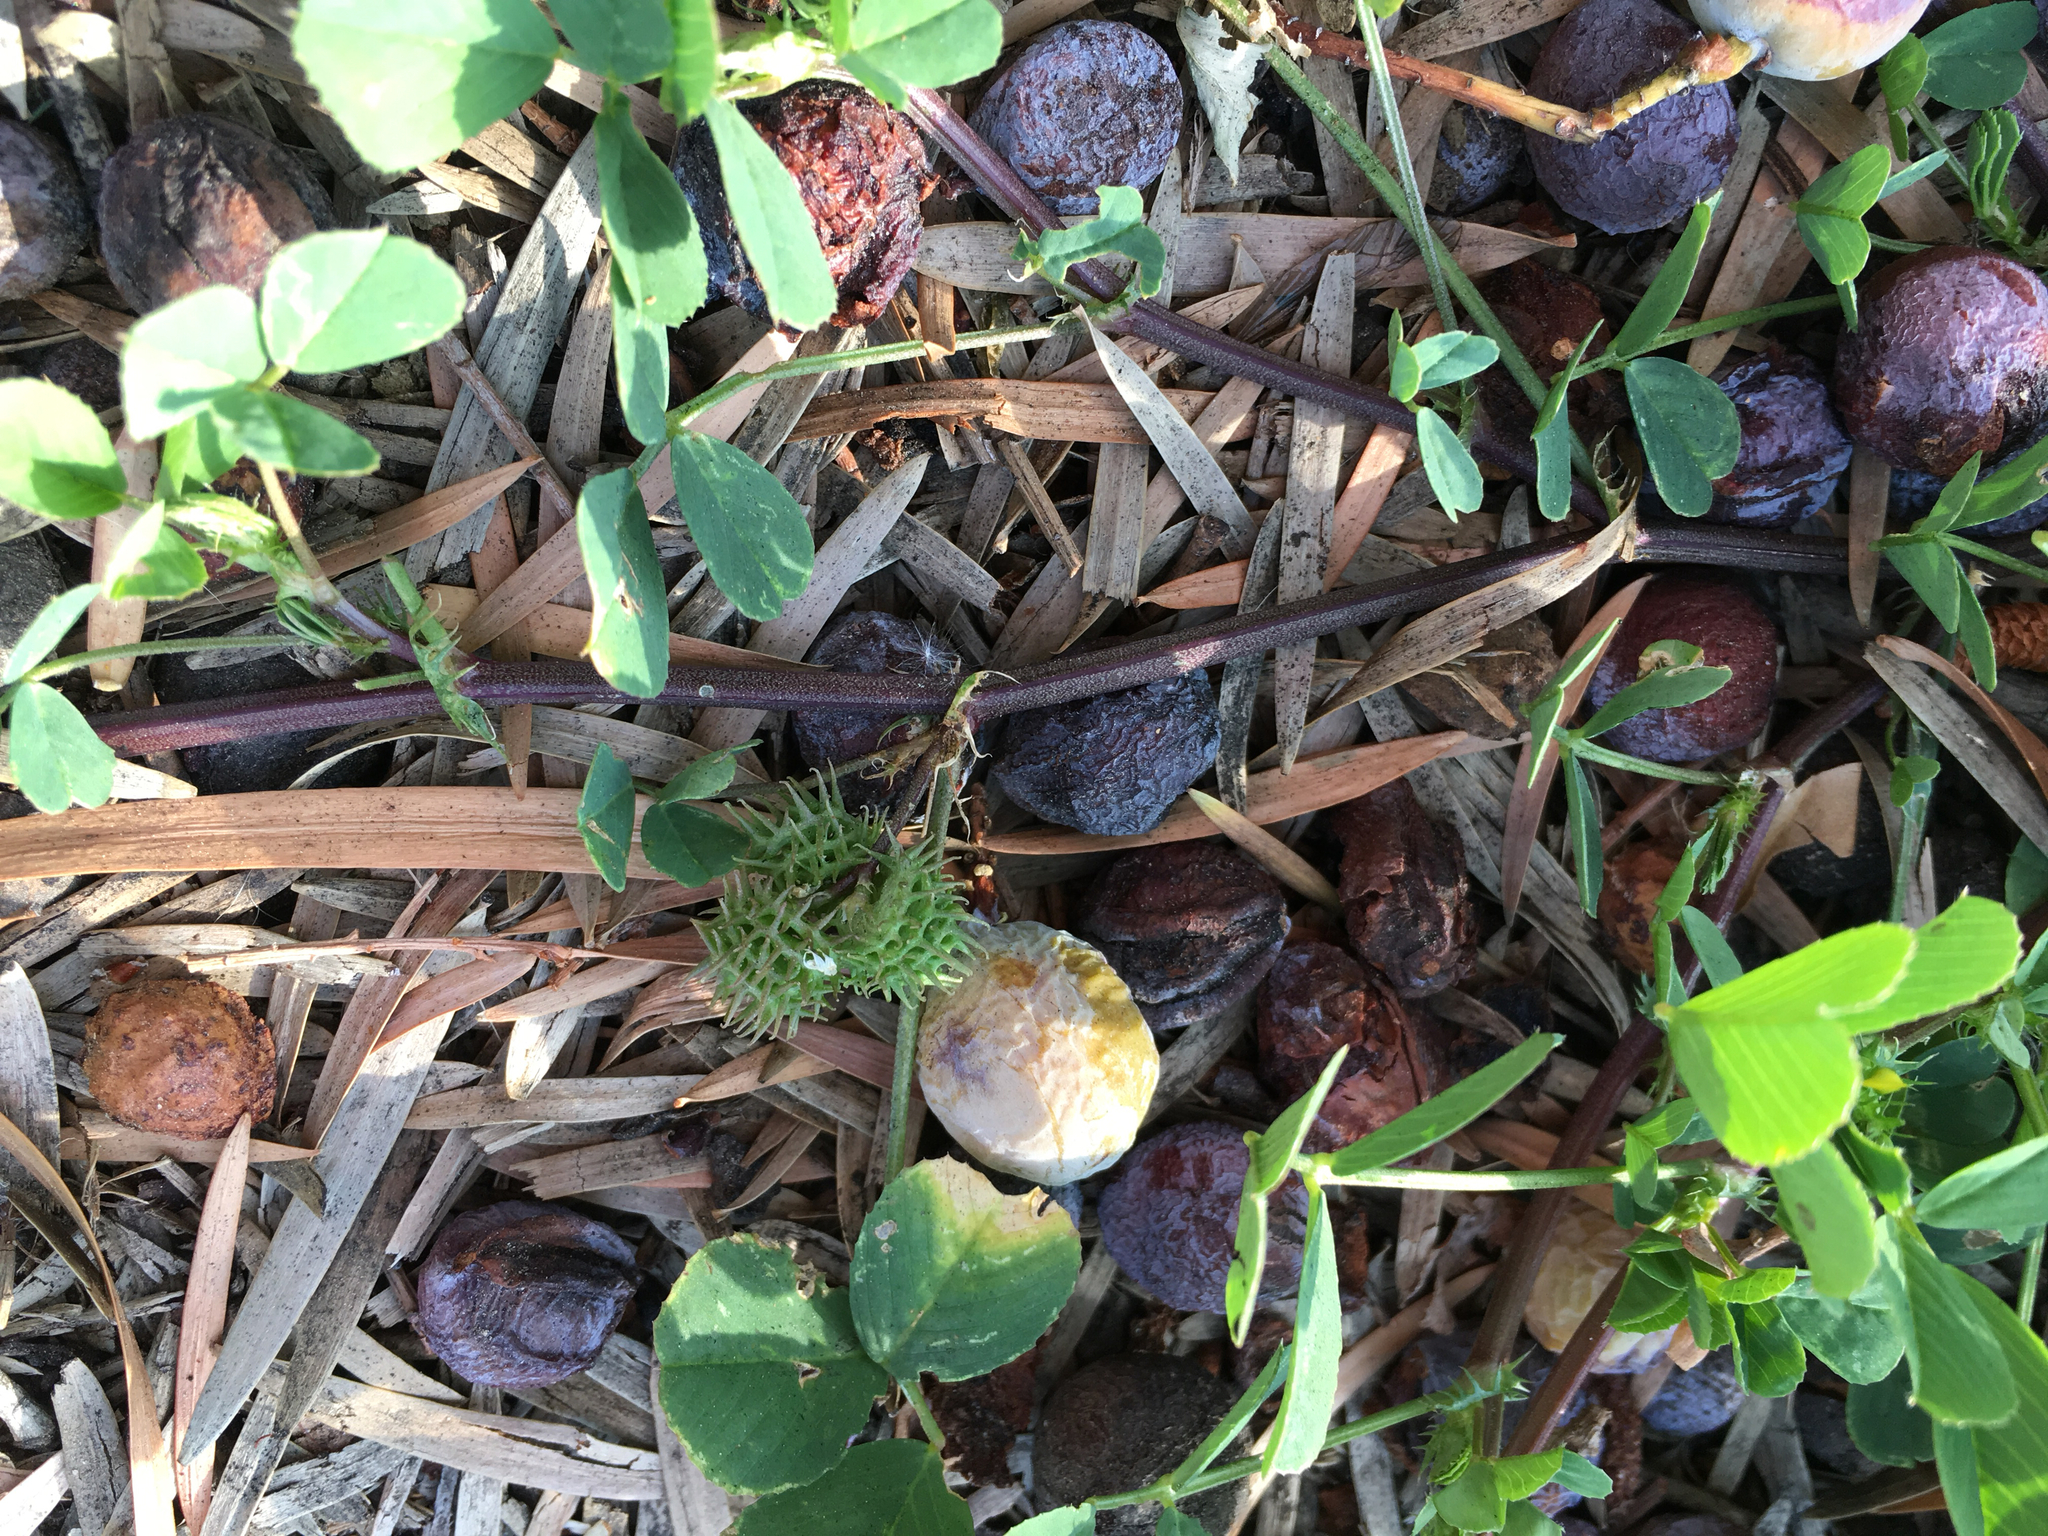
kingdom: Plantae
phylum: Tracheophyta
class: Magnoliopsida
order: Fabales
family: Fabaceae
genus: Medicago
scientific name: Medicago polymorpha
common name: Burclover
